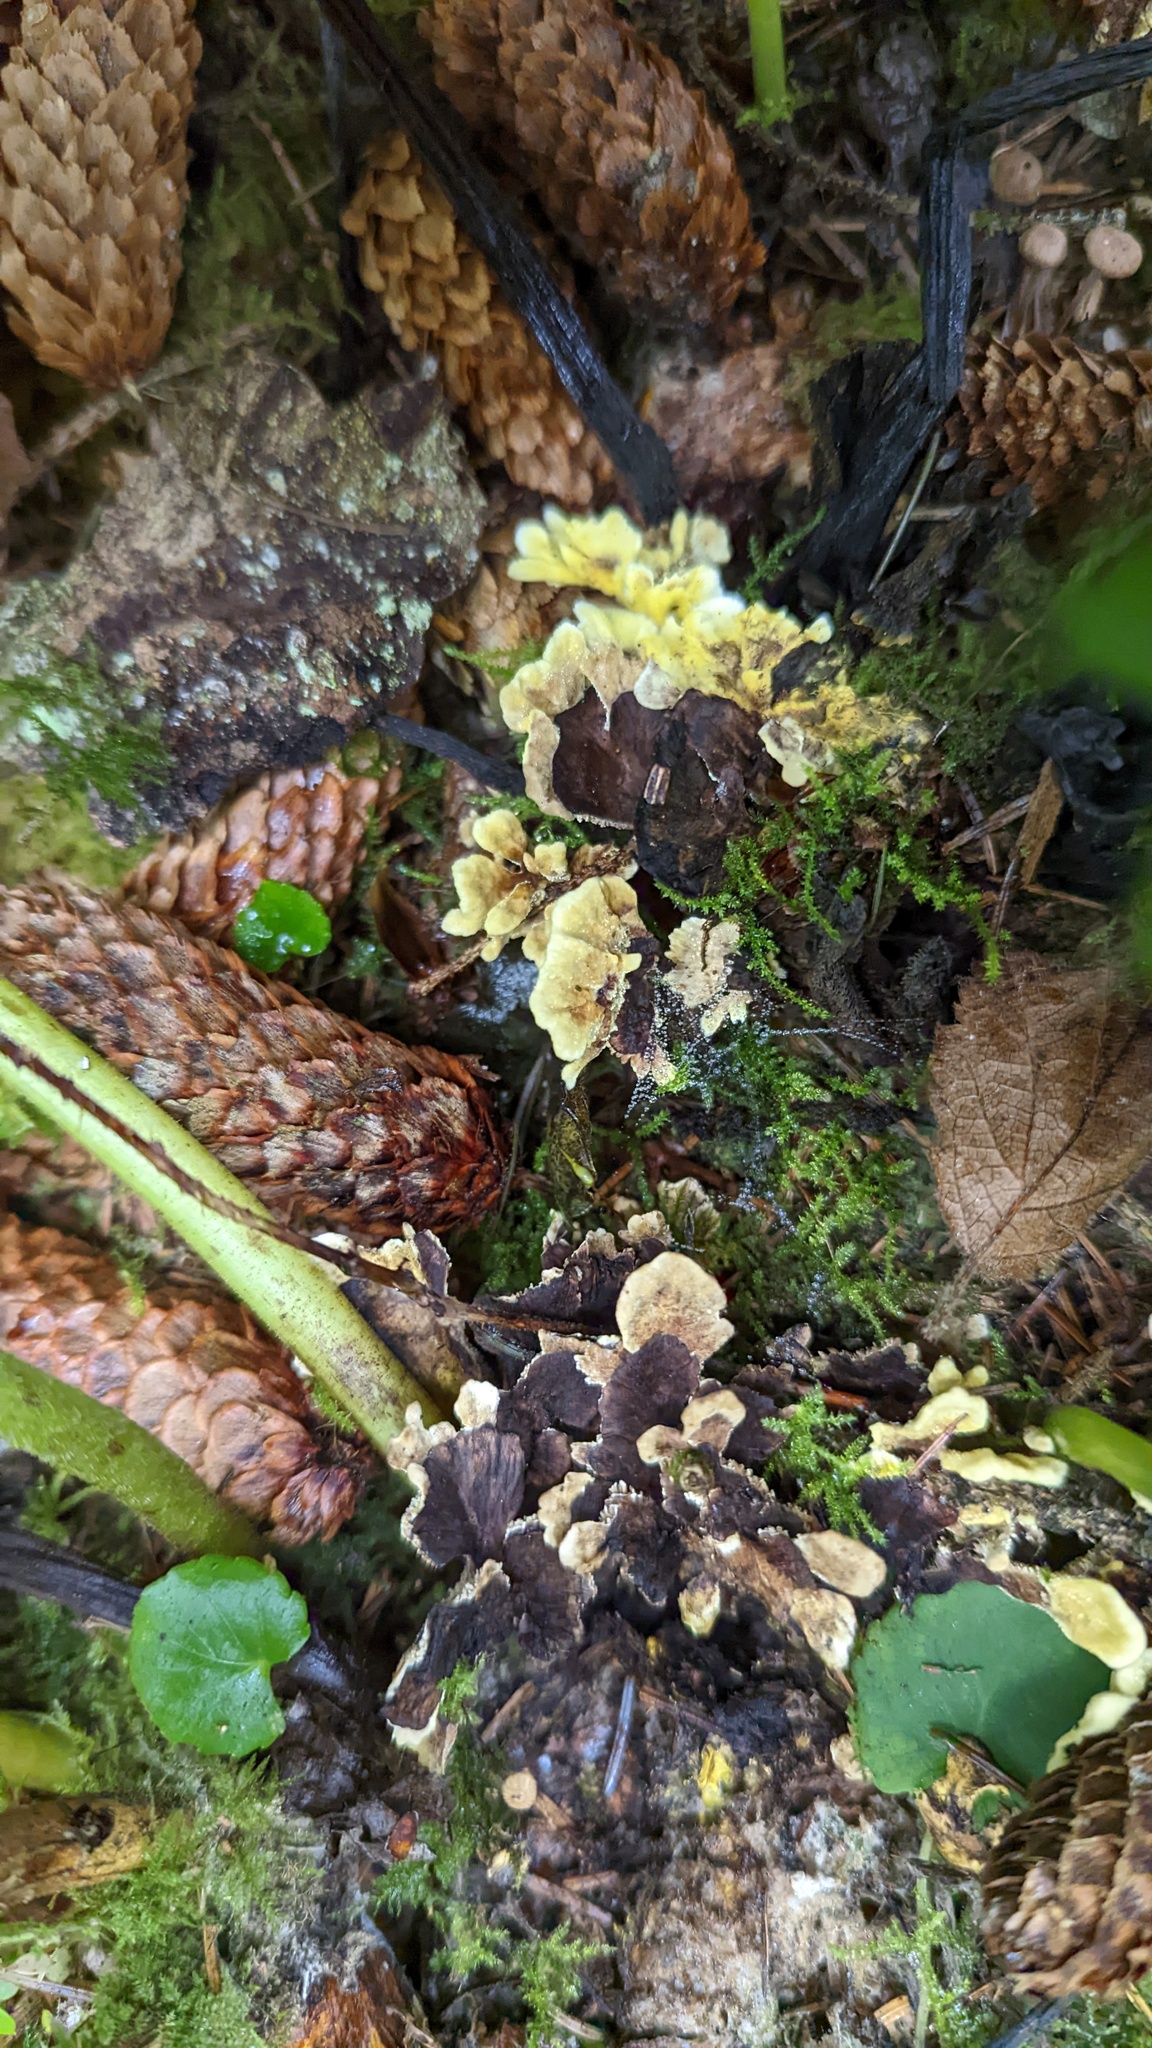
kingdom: Fungi
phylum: Basidiomycota
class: Agaricomycetes
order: Thelephorales
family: Bankeraceae
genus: Hydnellum
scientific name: Hydnellum geogenium
